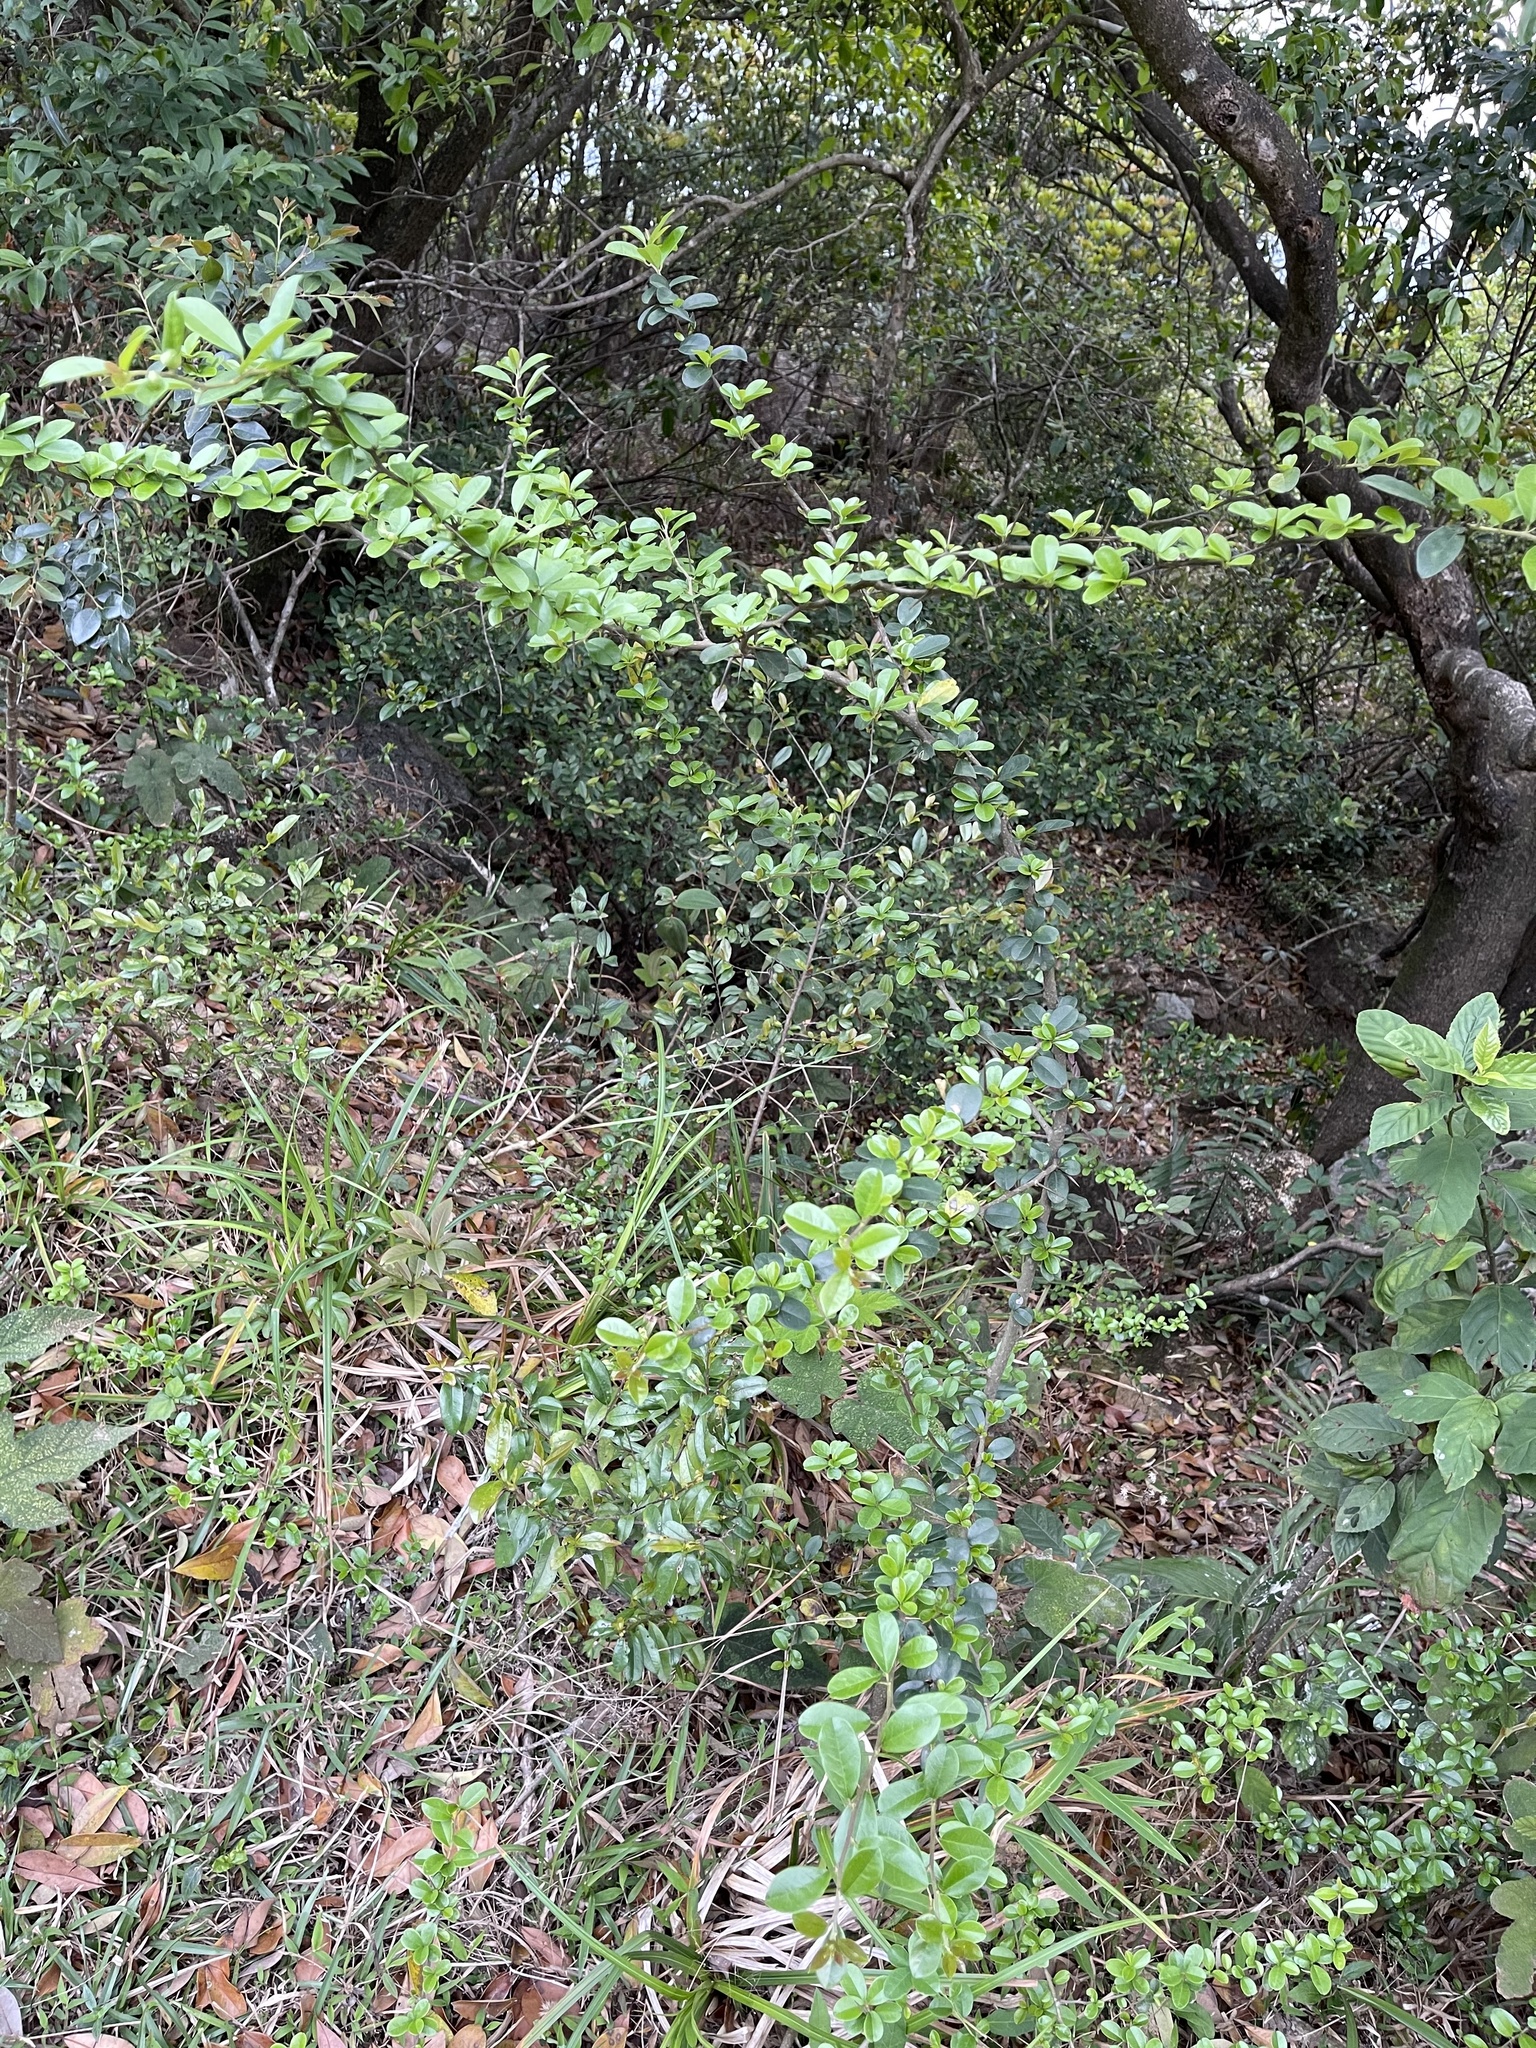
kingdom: Plantae
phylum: Tracheophyta
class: Magnoliopsida
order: Rosales
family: Moraceae
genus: Maclura
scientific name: Maclura cochinchinensis
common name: Cockspurthorn
